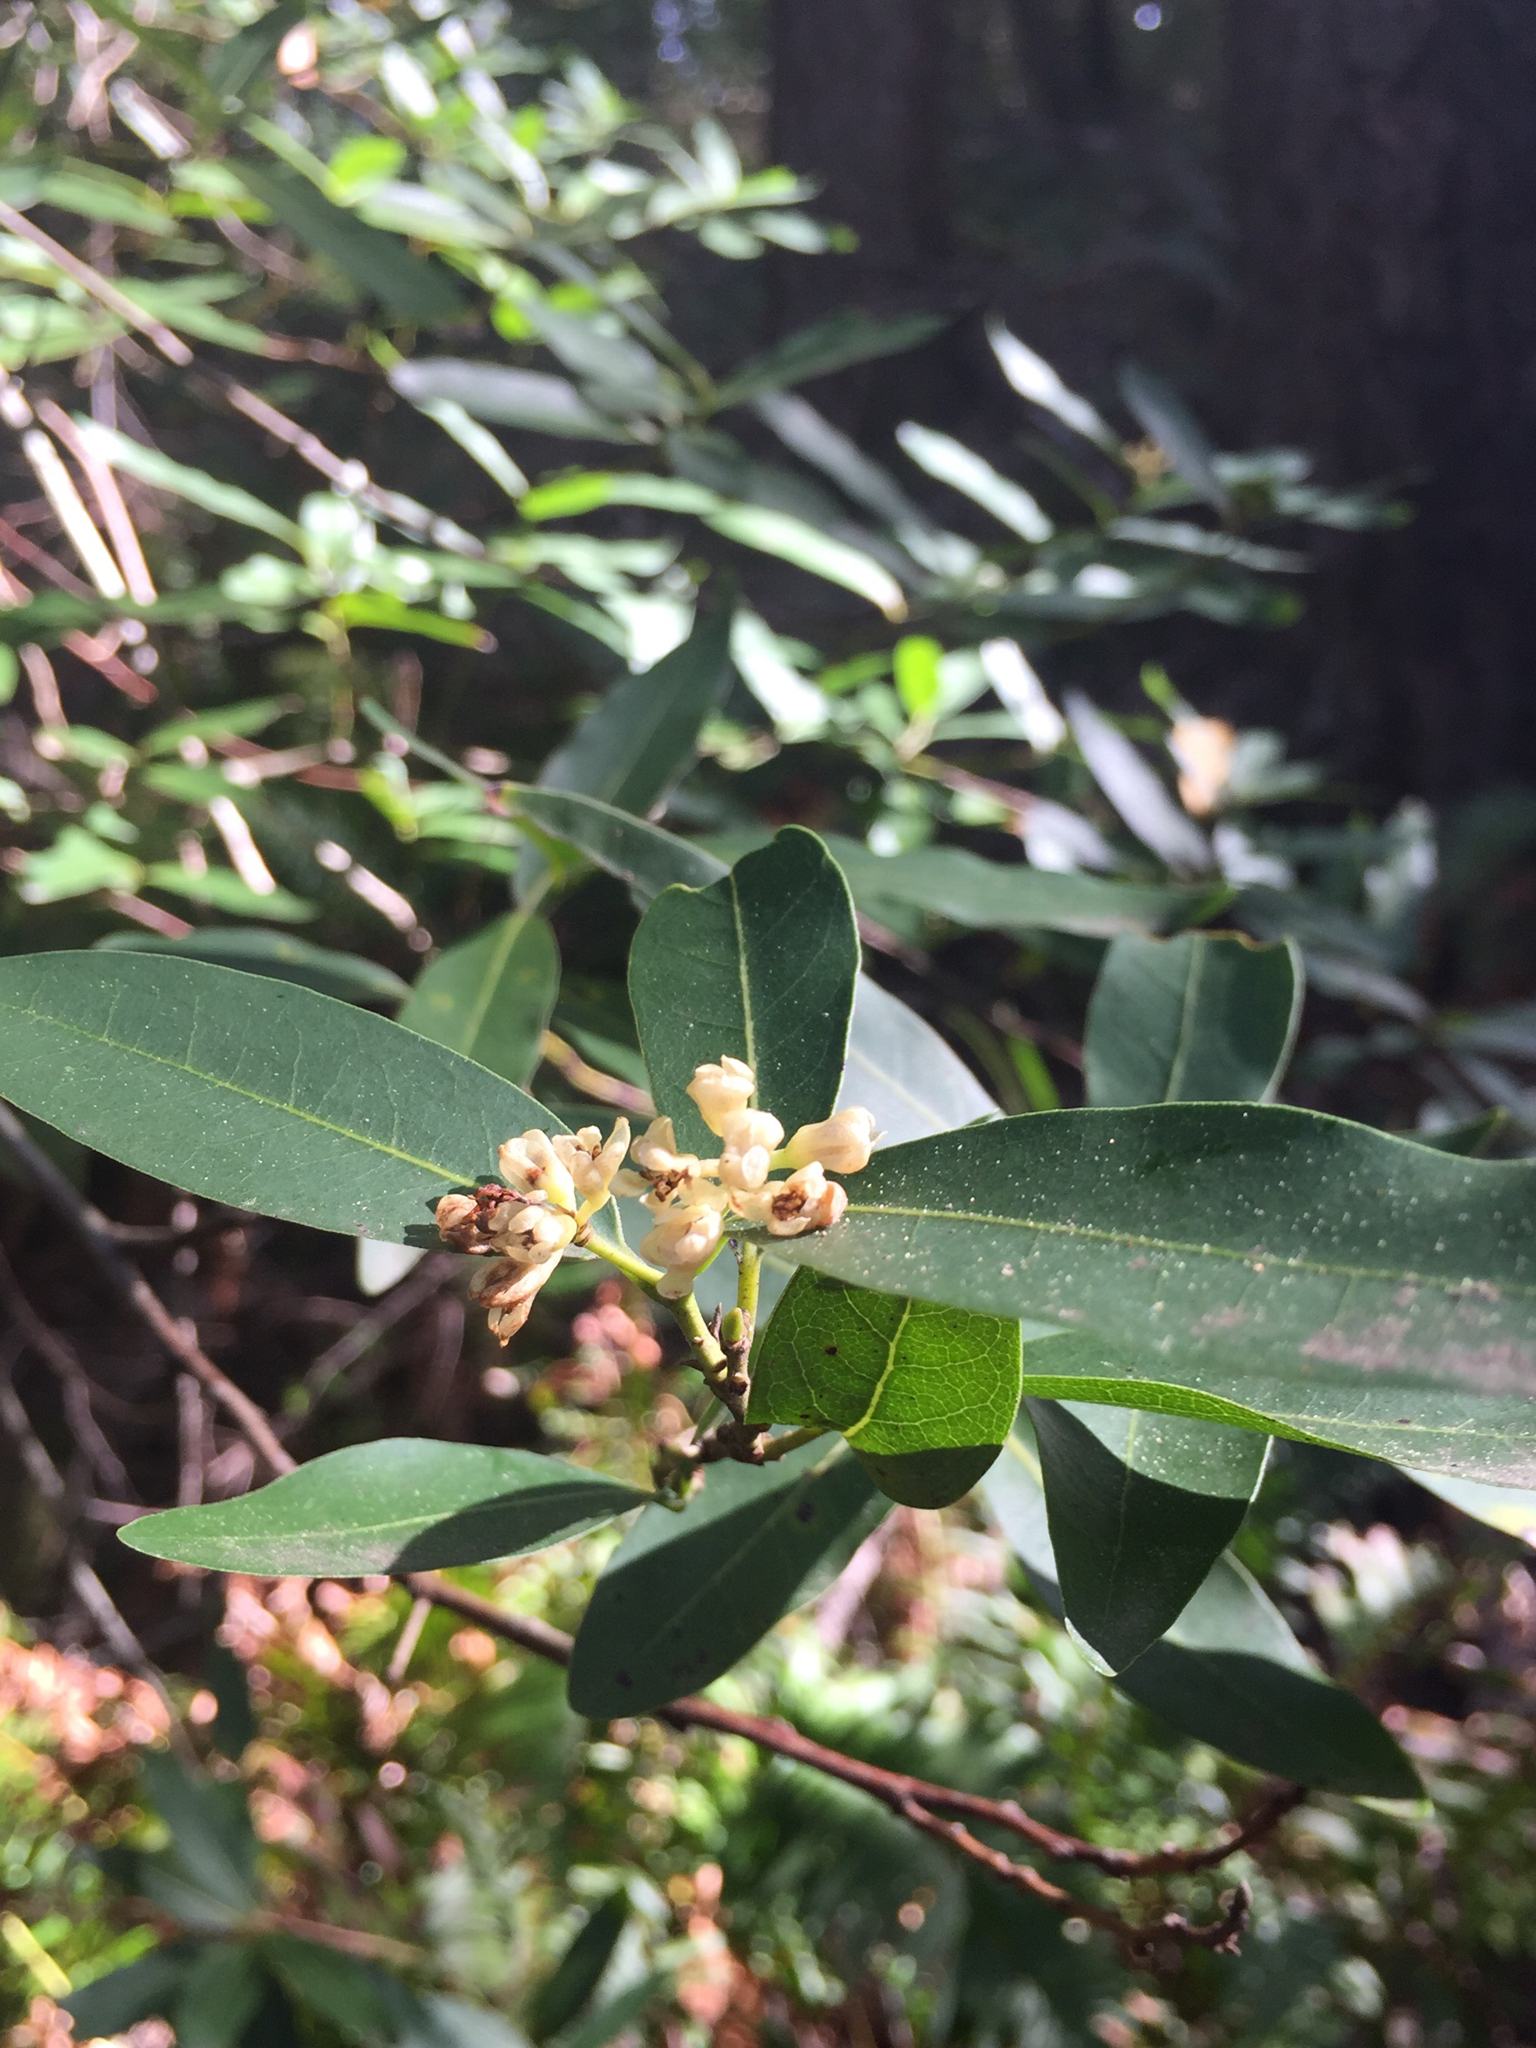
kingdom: Plantae
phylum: Tracheophyta
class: Magnoliopsida
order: Laurales
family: Lauraceae
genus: Umbellularia
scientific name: Umbellularia californica
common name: California bay
